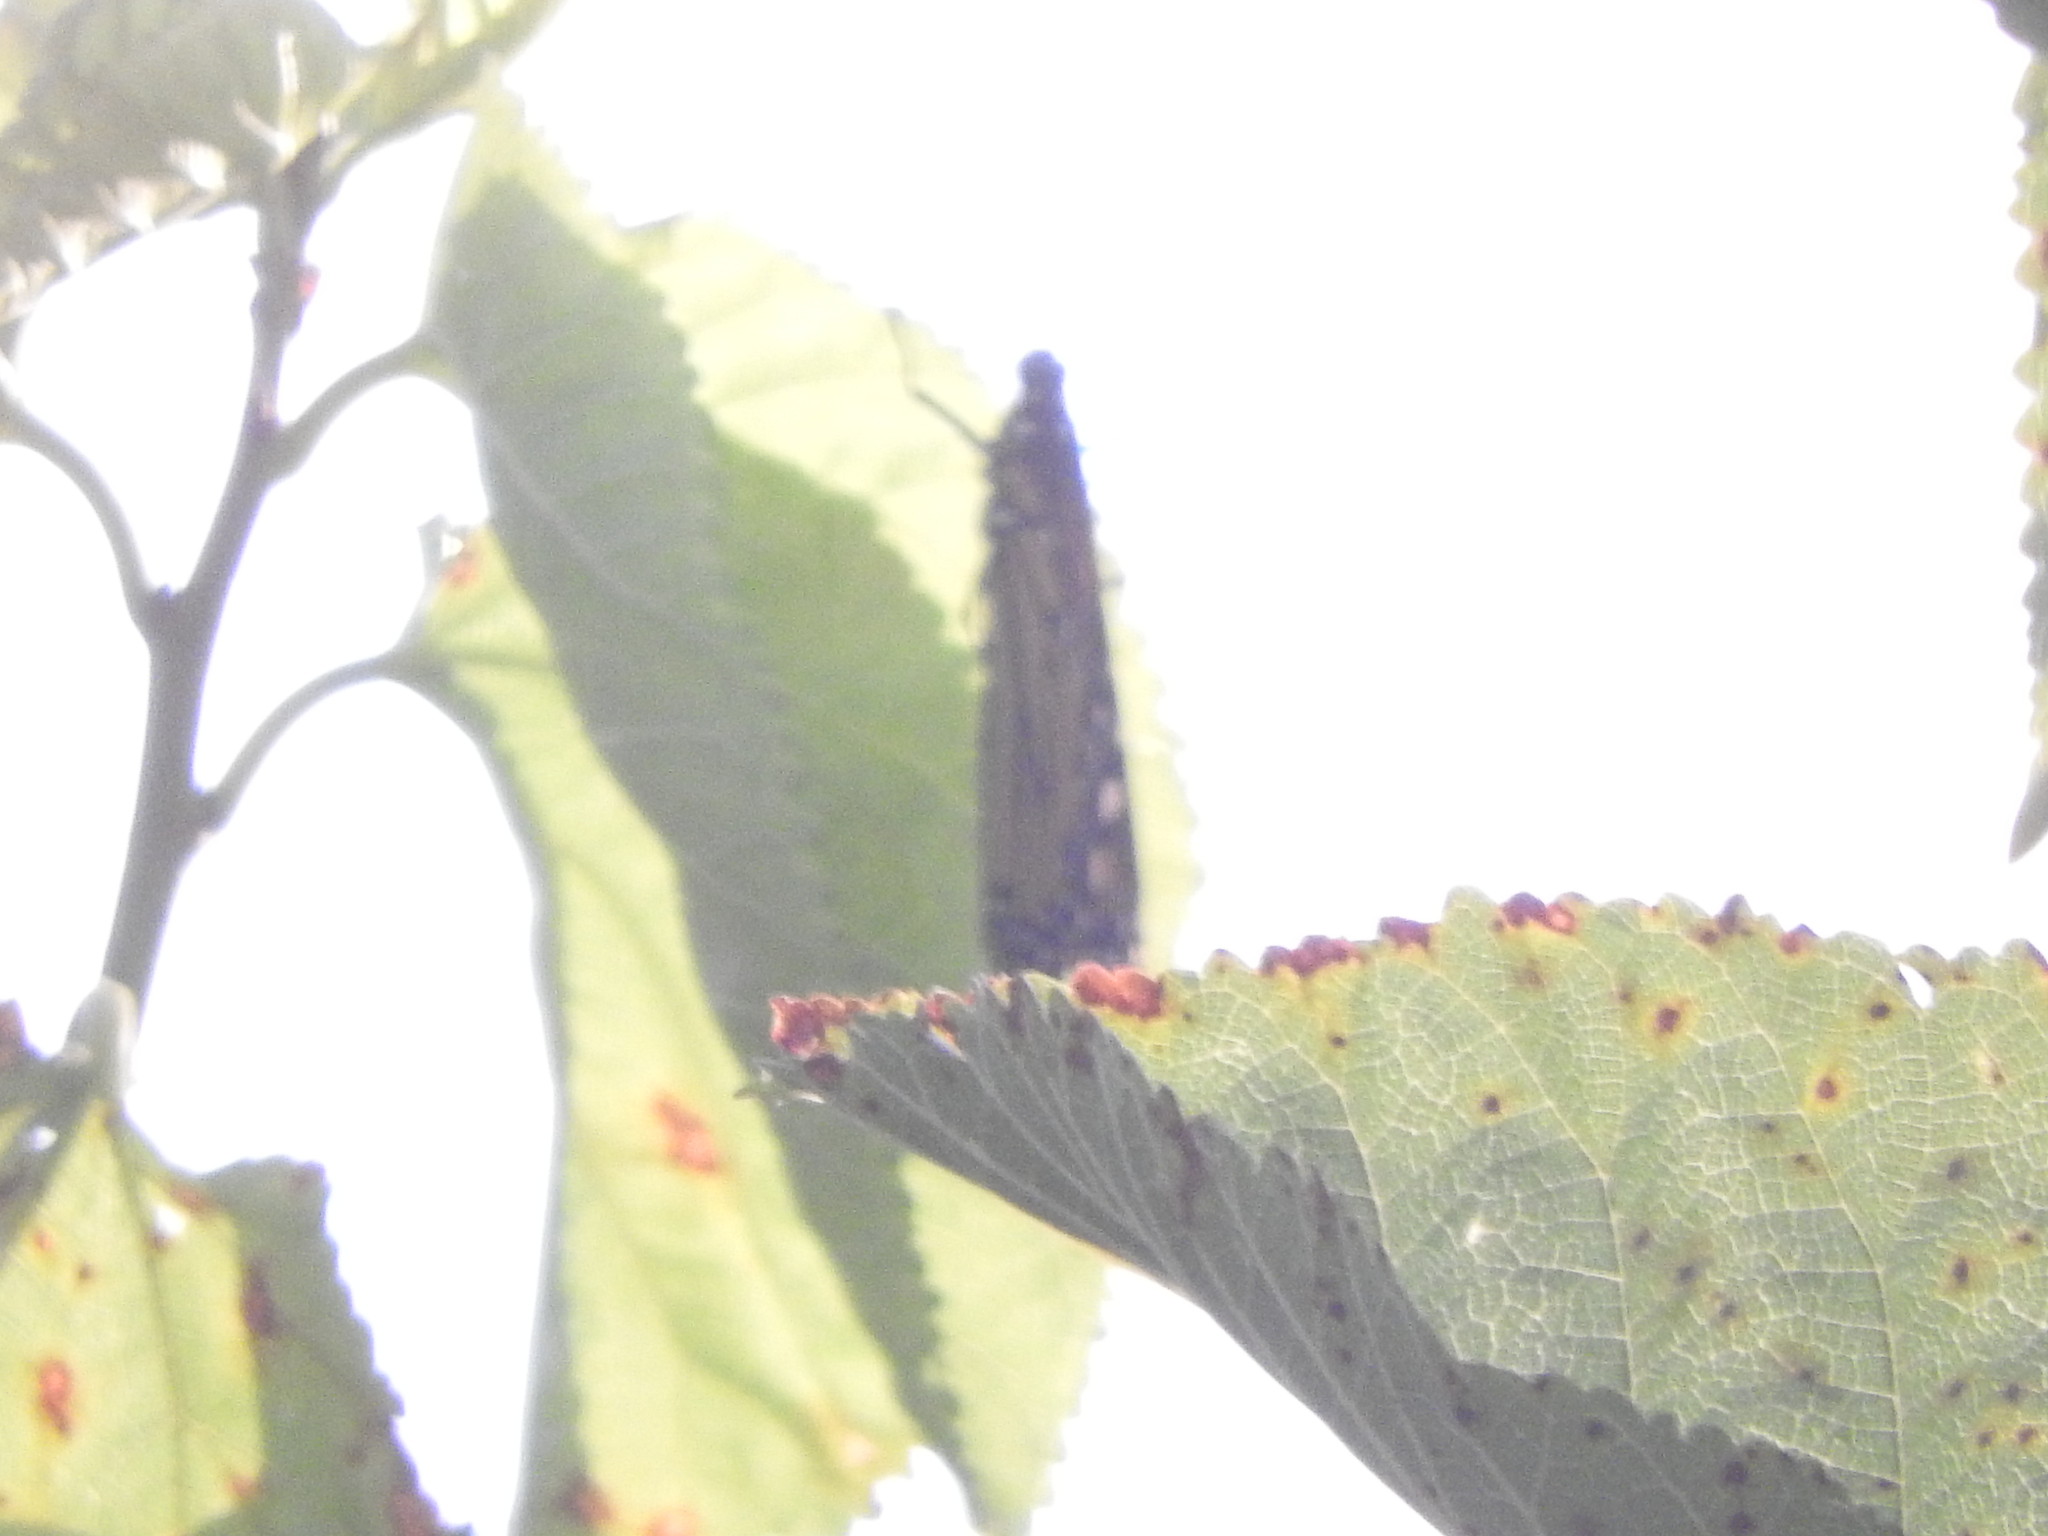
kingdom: Animalia
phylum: Arthropoda
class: Insecta
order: Lepidoptera
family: Nymphalidae
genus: Danaus
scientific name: Danaus plexippus
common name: Monarch
